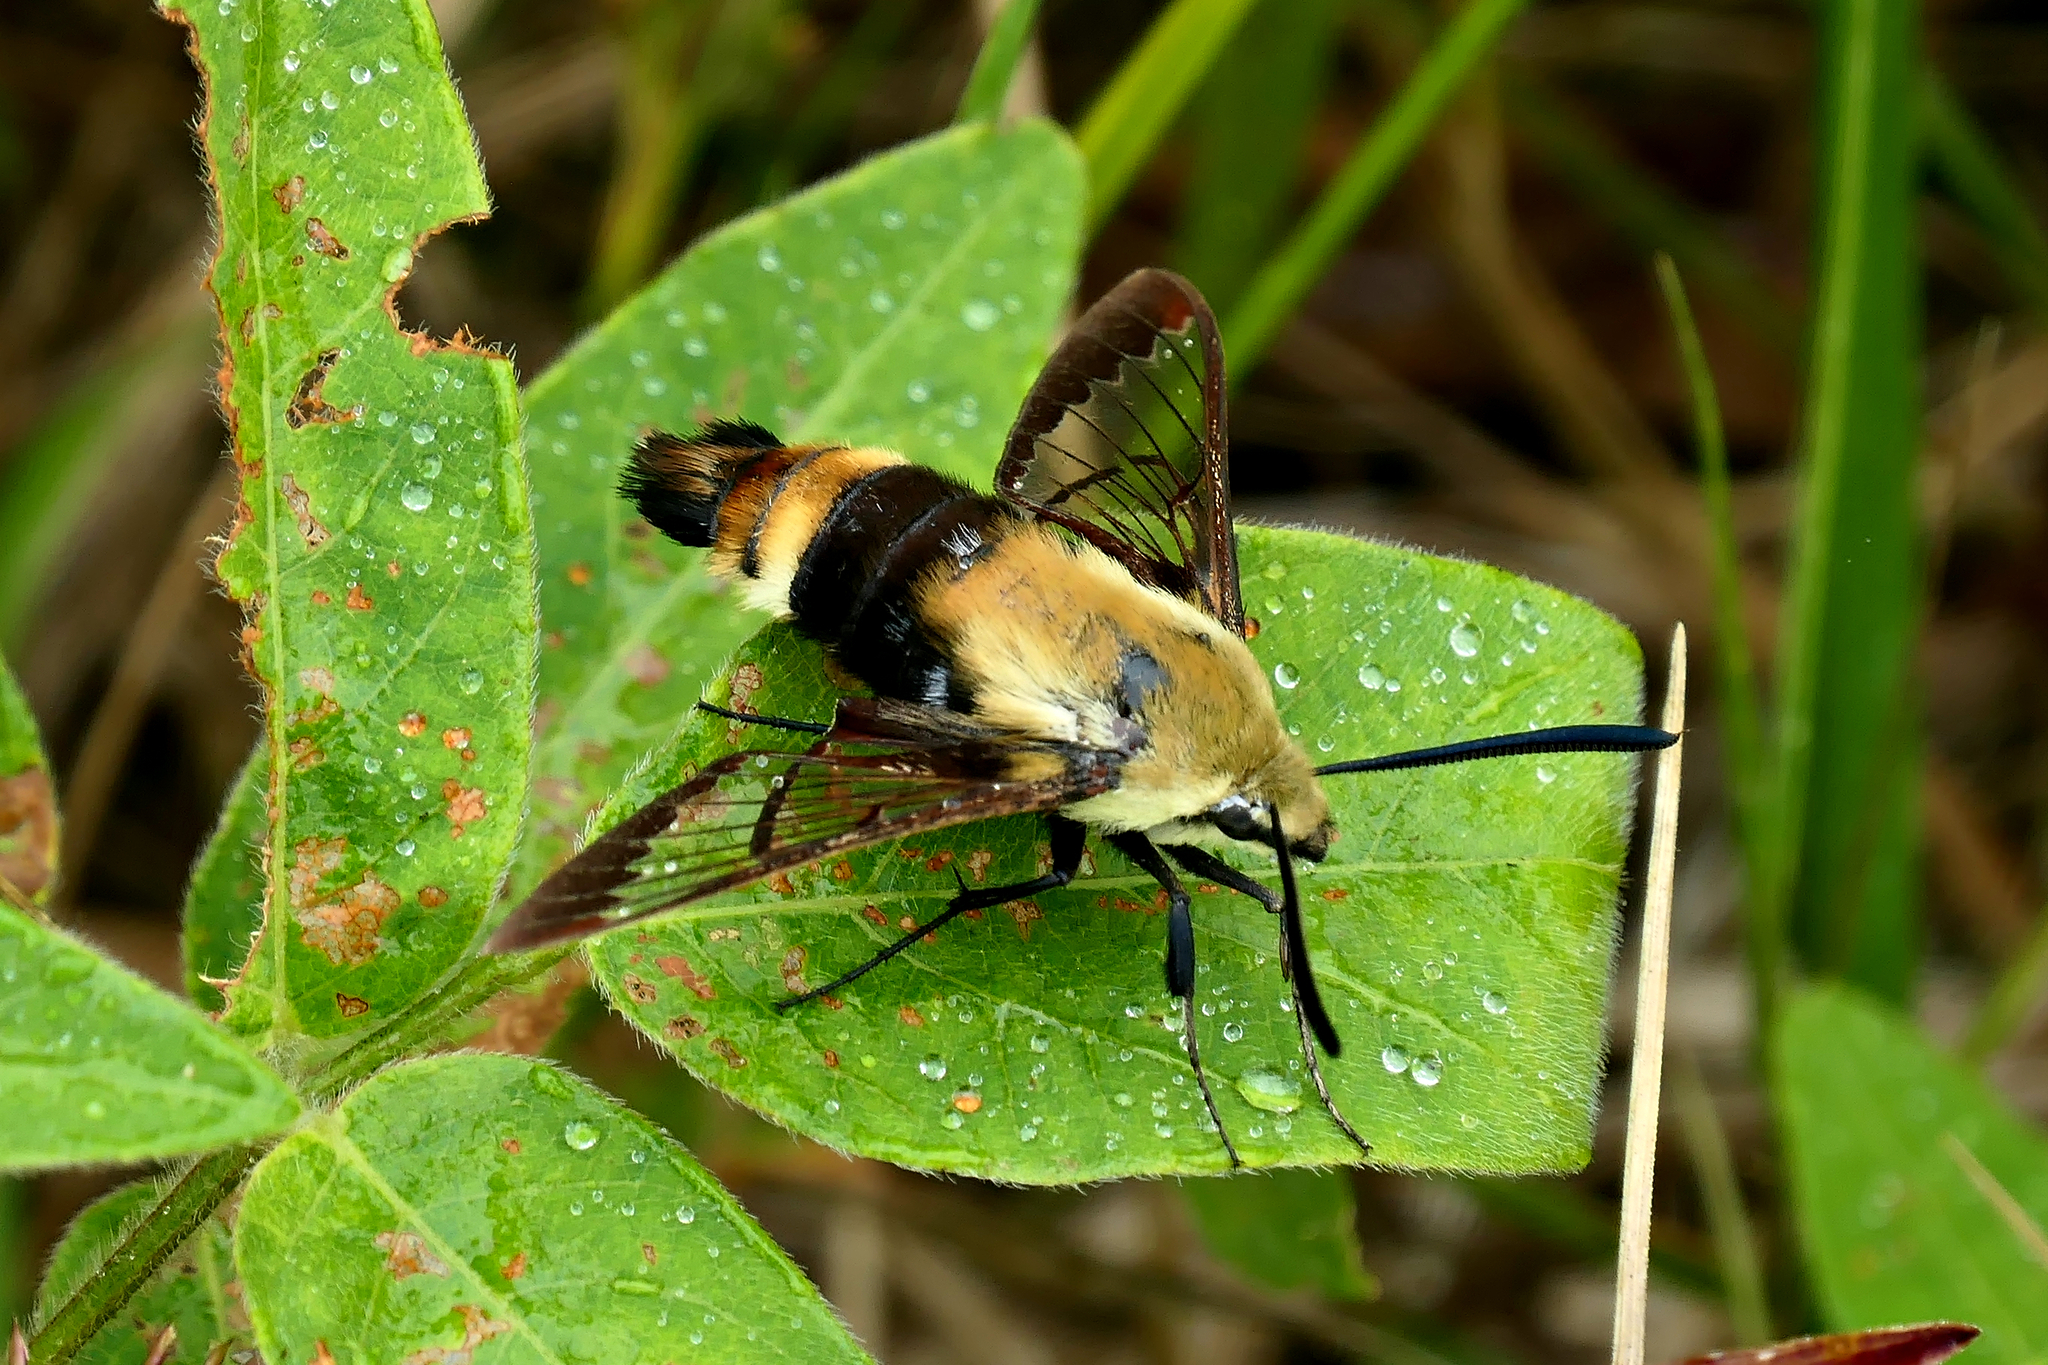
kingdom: Animalia
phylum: Arthropoda
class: Insecta
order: Lepidoptera
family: Sphingidae
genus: Hemaris
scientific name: Hemaris diffinis
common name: Bumblebee moth
